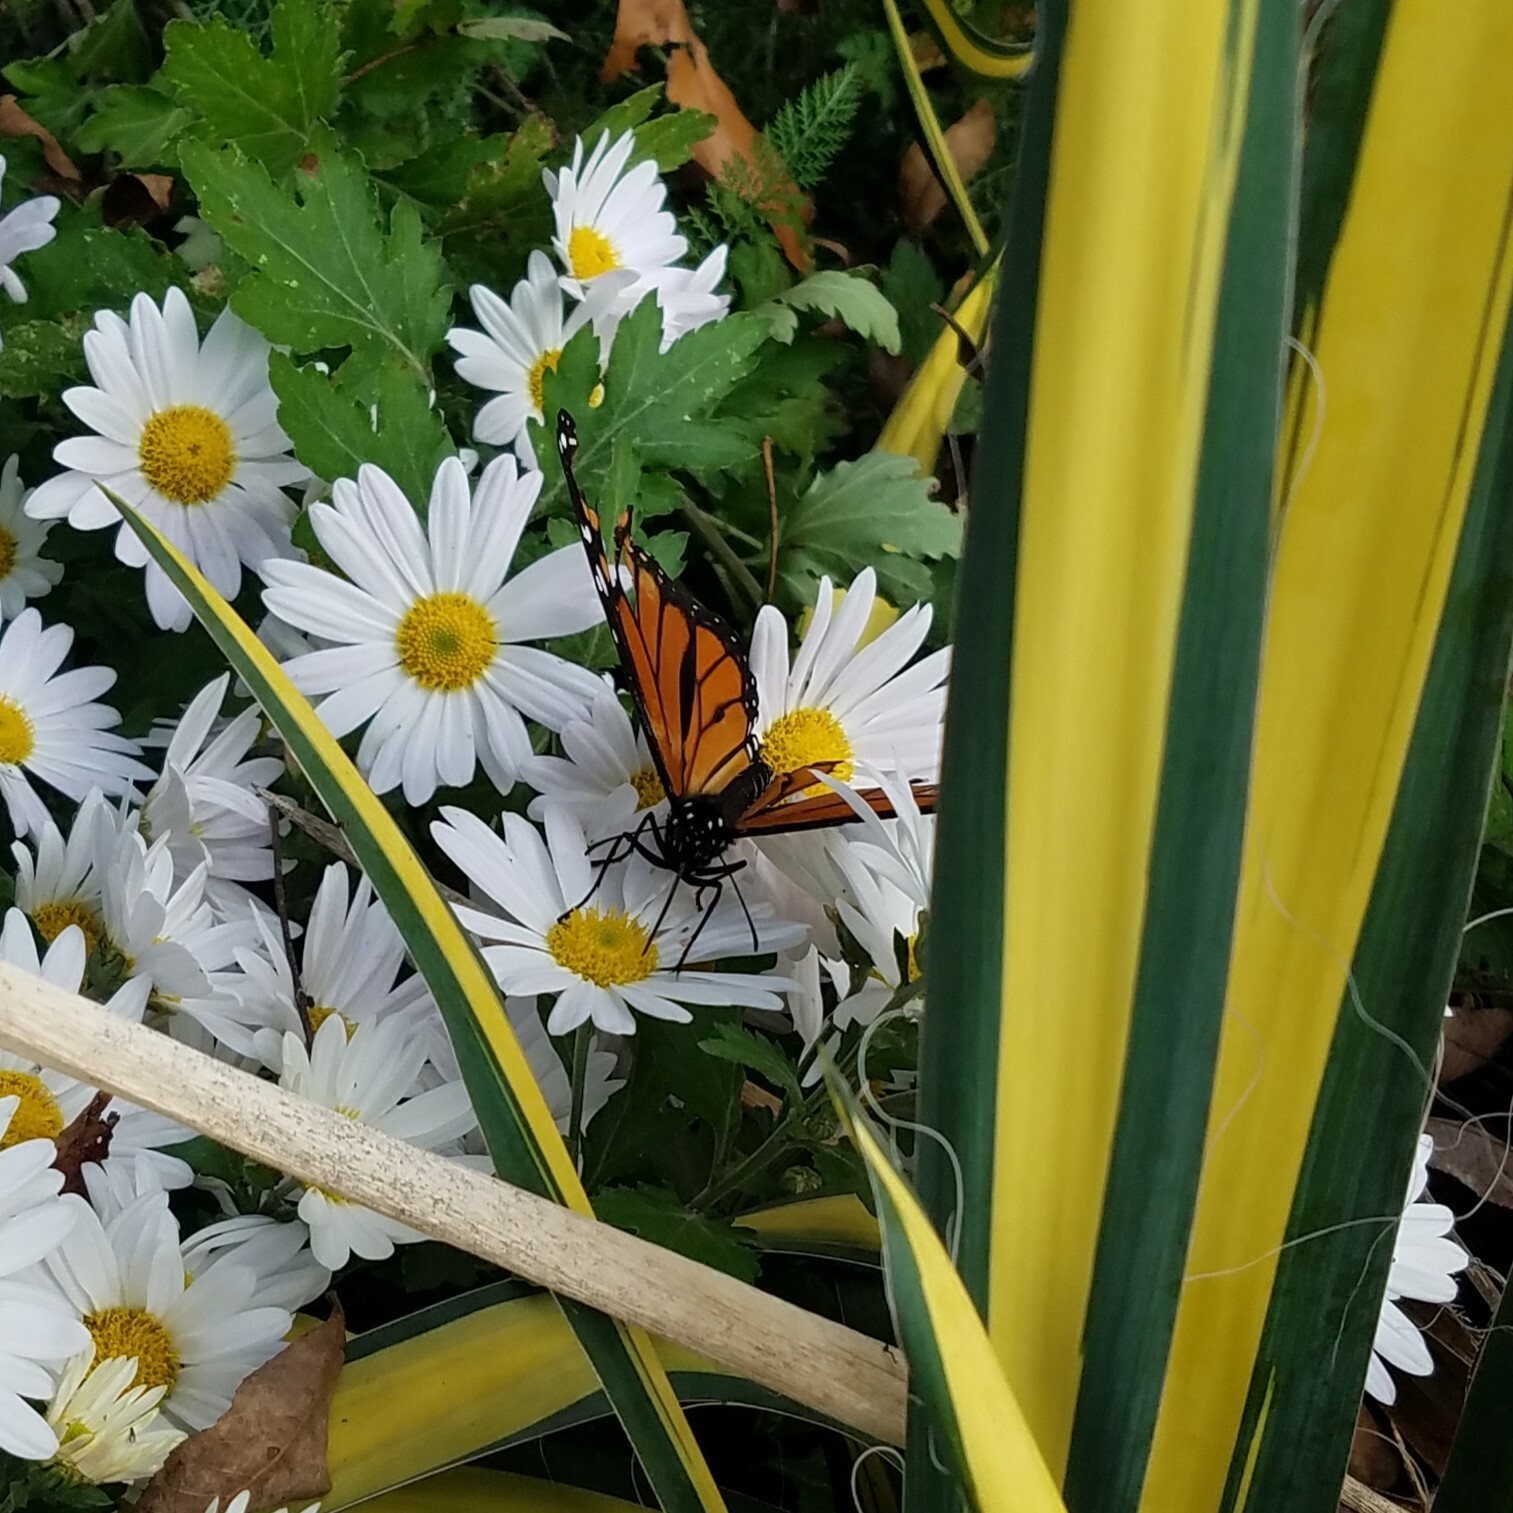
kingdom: Animalia
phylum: Arthropoda
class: Insecta
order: Lepidoptera
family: Nymphalidae
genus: Danaus
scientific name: Danaus plexippus
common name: Monarch
